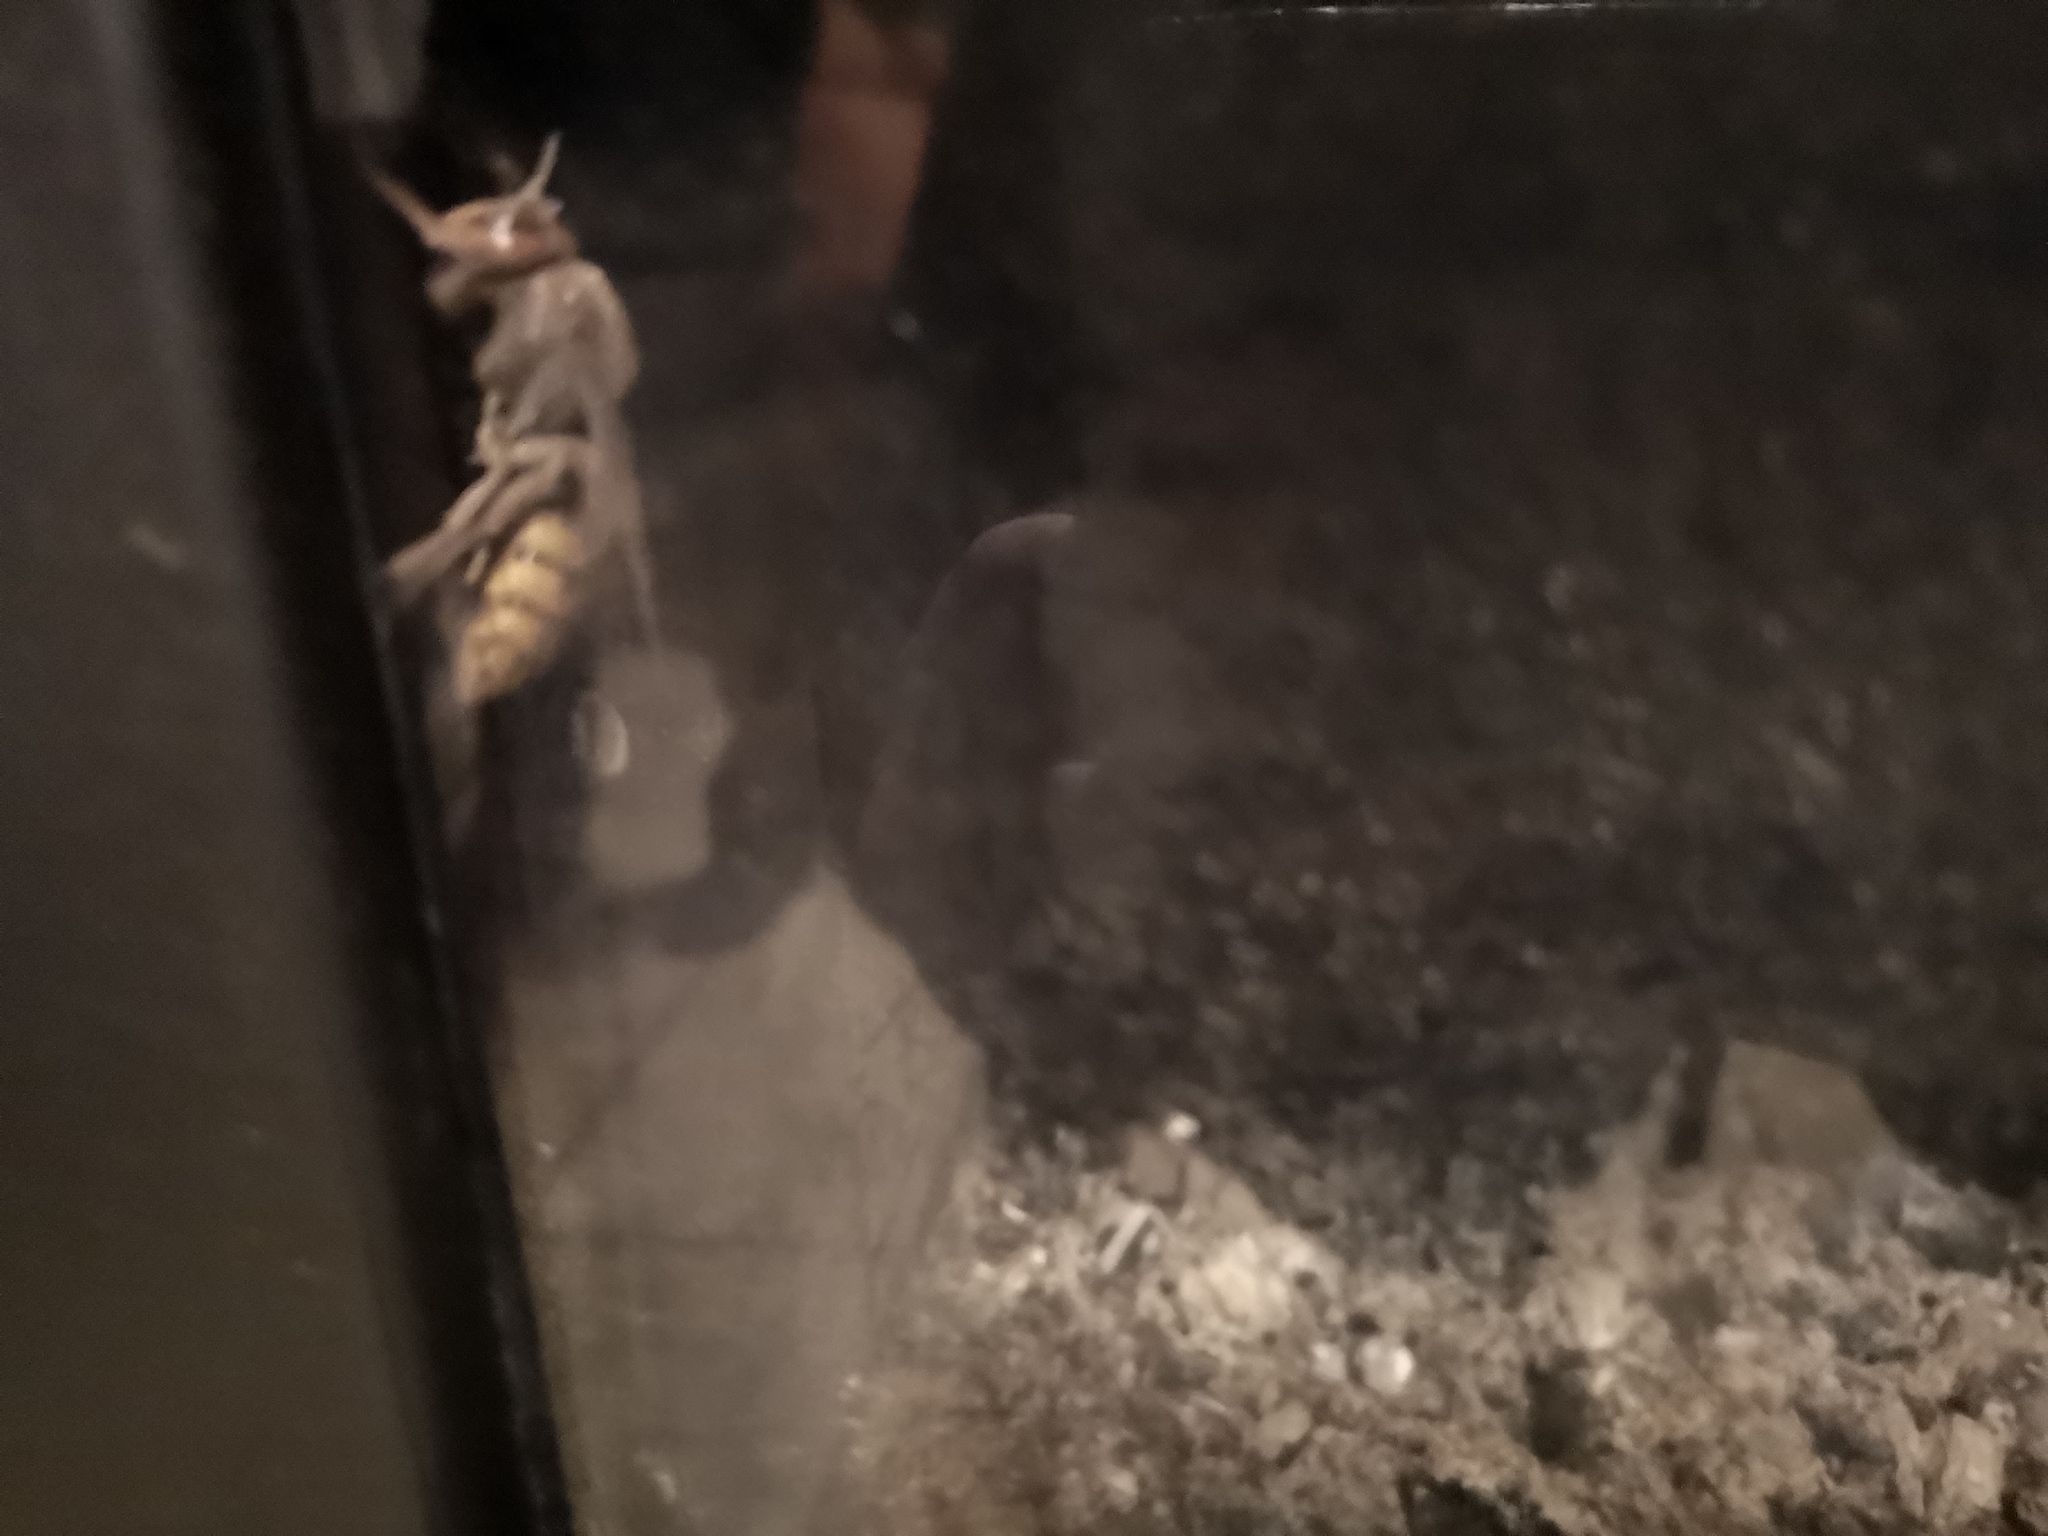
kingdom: Animalia
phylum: Arthropoda
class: Insecta
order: Hymenoptera
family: Vespidae
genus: Vespa
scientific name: Vespa crabro
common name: Hornet
